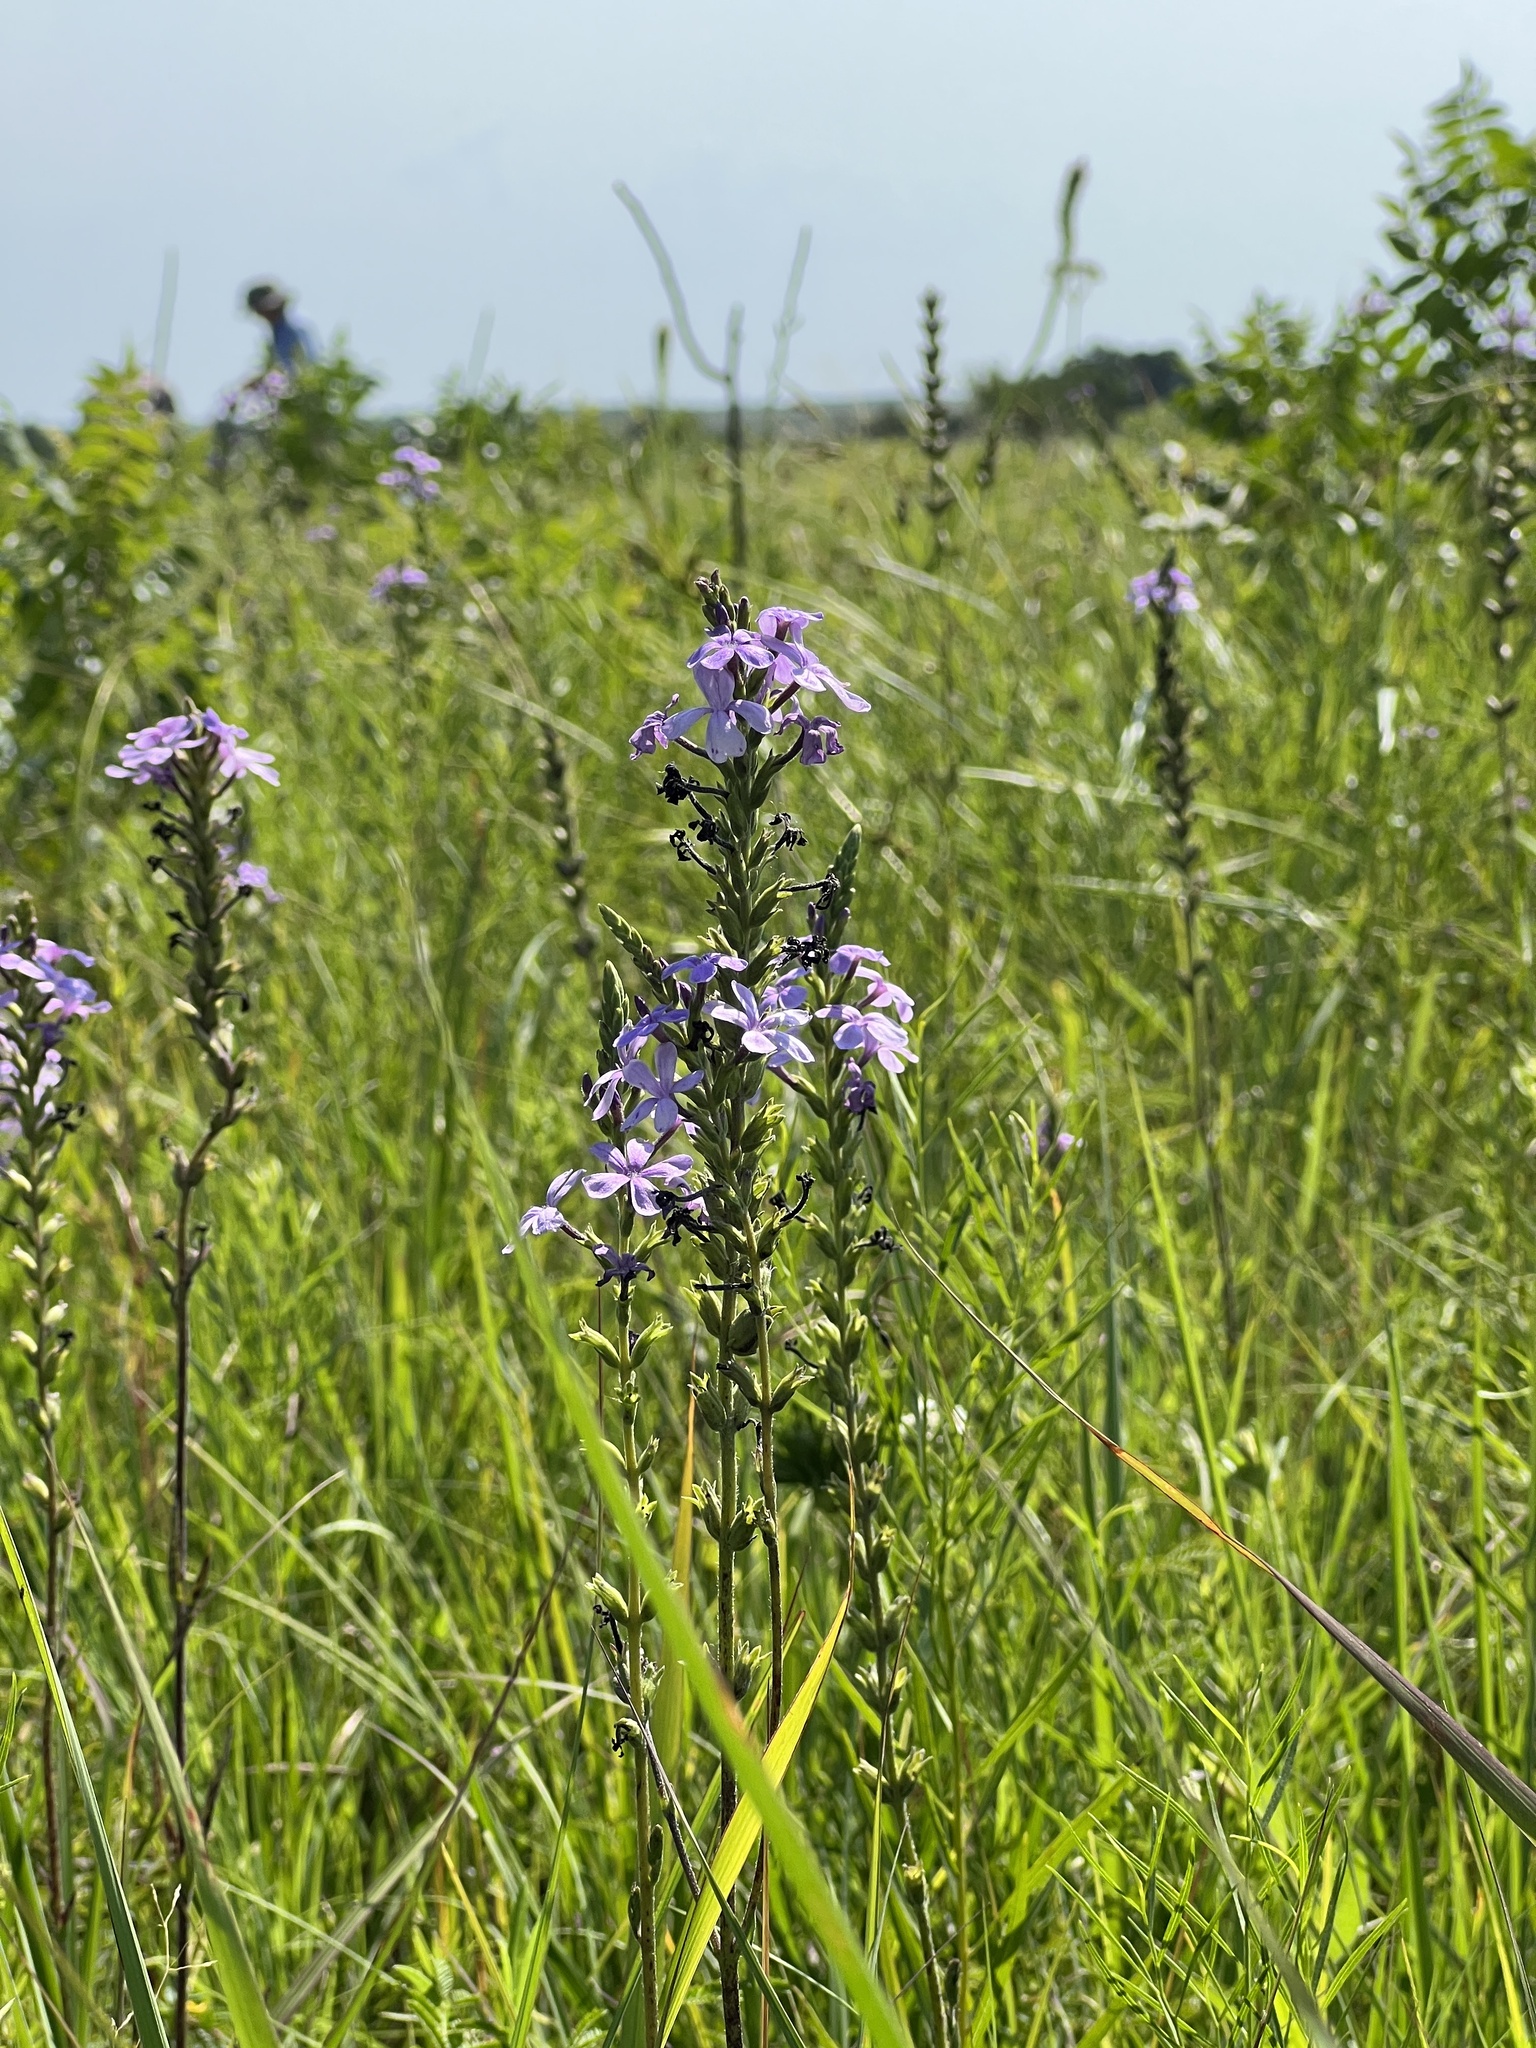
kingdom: Plantae
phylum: Tracheophyta
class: Magnoliopsida
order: Lamiales
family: Orobanchaceae
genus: Buchnera
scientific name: Buchnera americana
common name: American bluehearts
